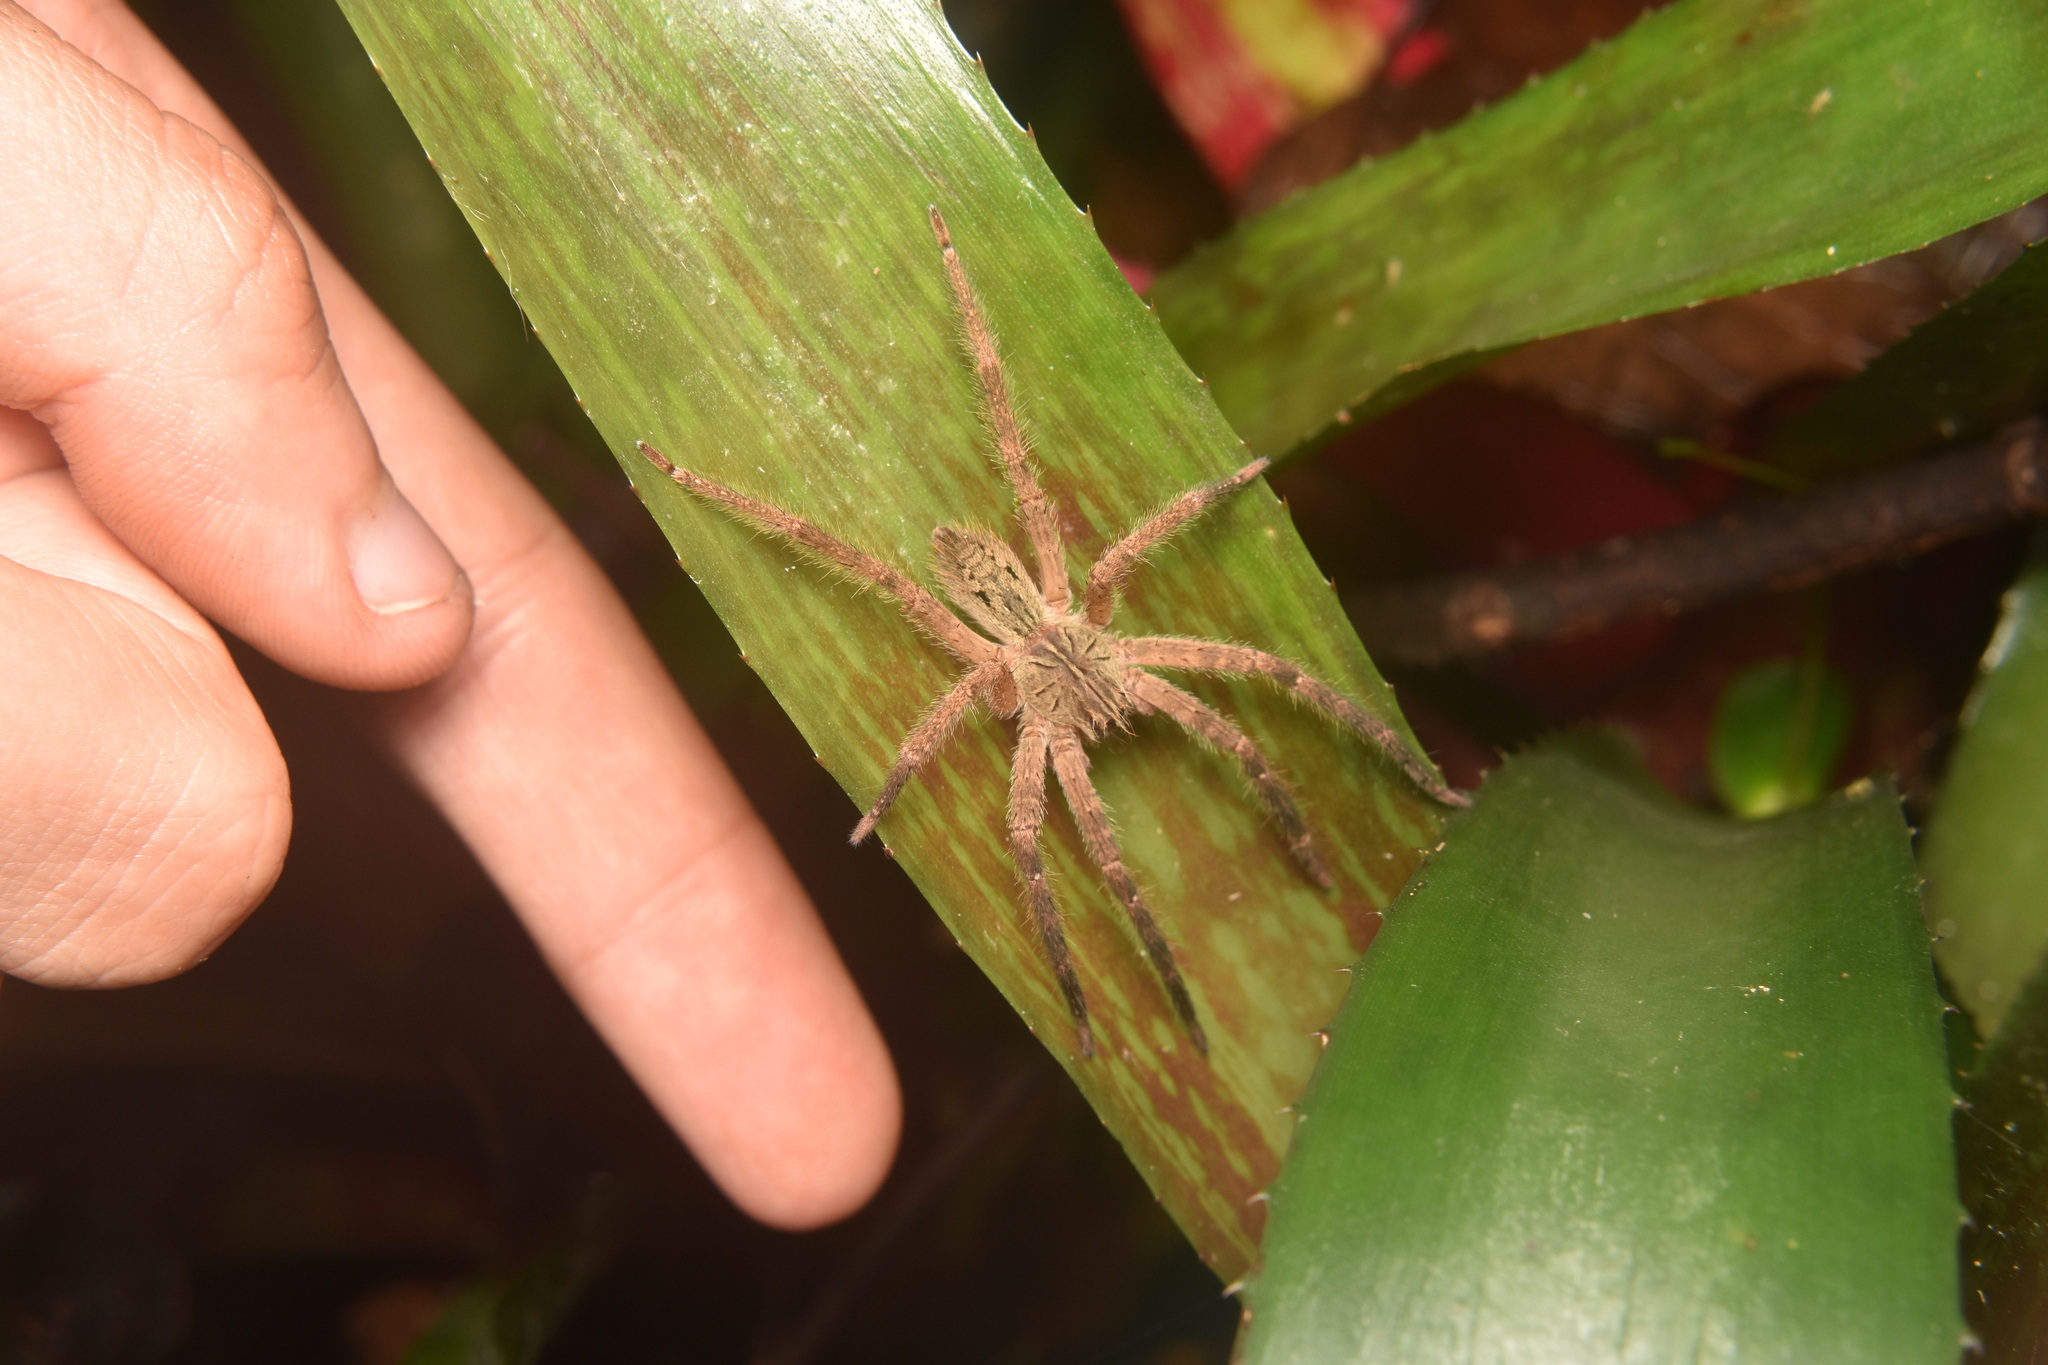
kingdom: Animalia
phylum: Arthropoda
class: Arachnida
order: Araneae
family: Trechaleidae
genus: Cupiennius
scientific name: Cupiennius coccineus
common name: Wandering spiders
